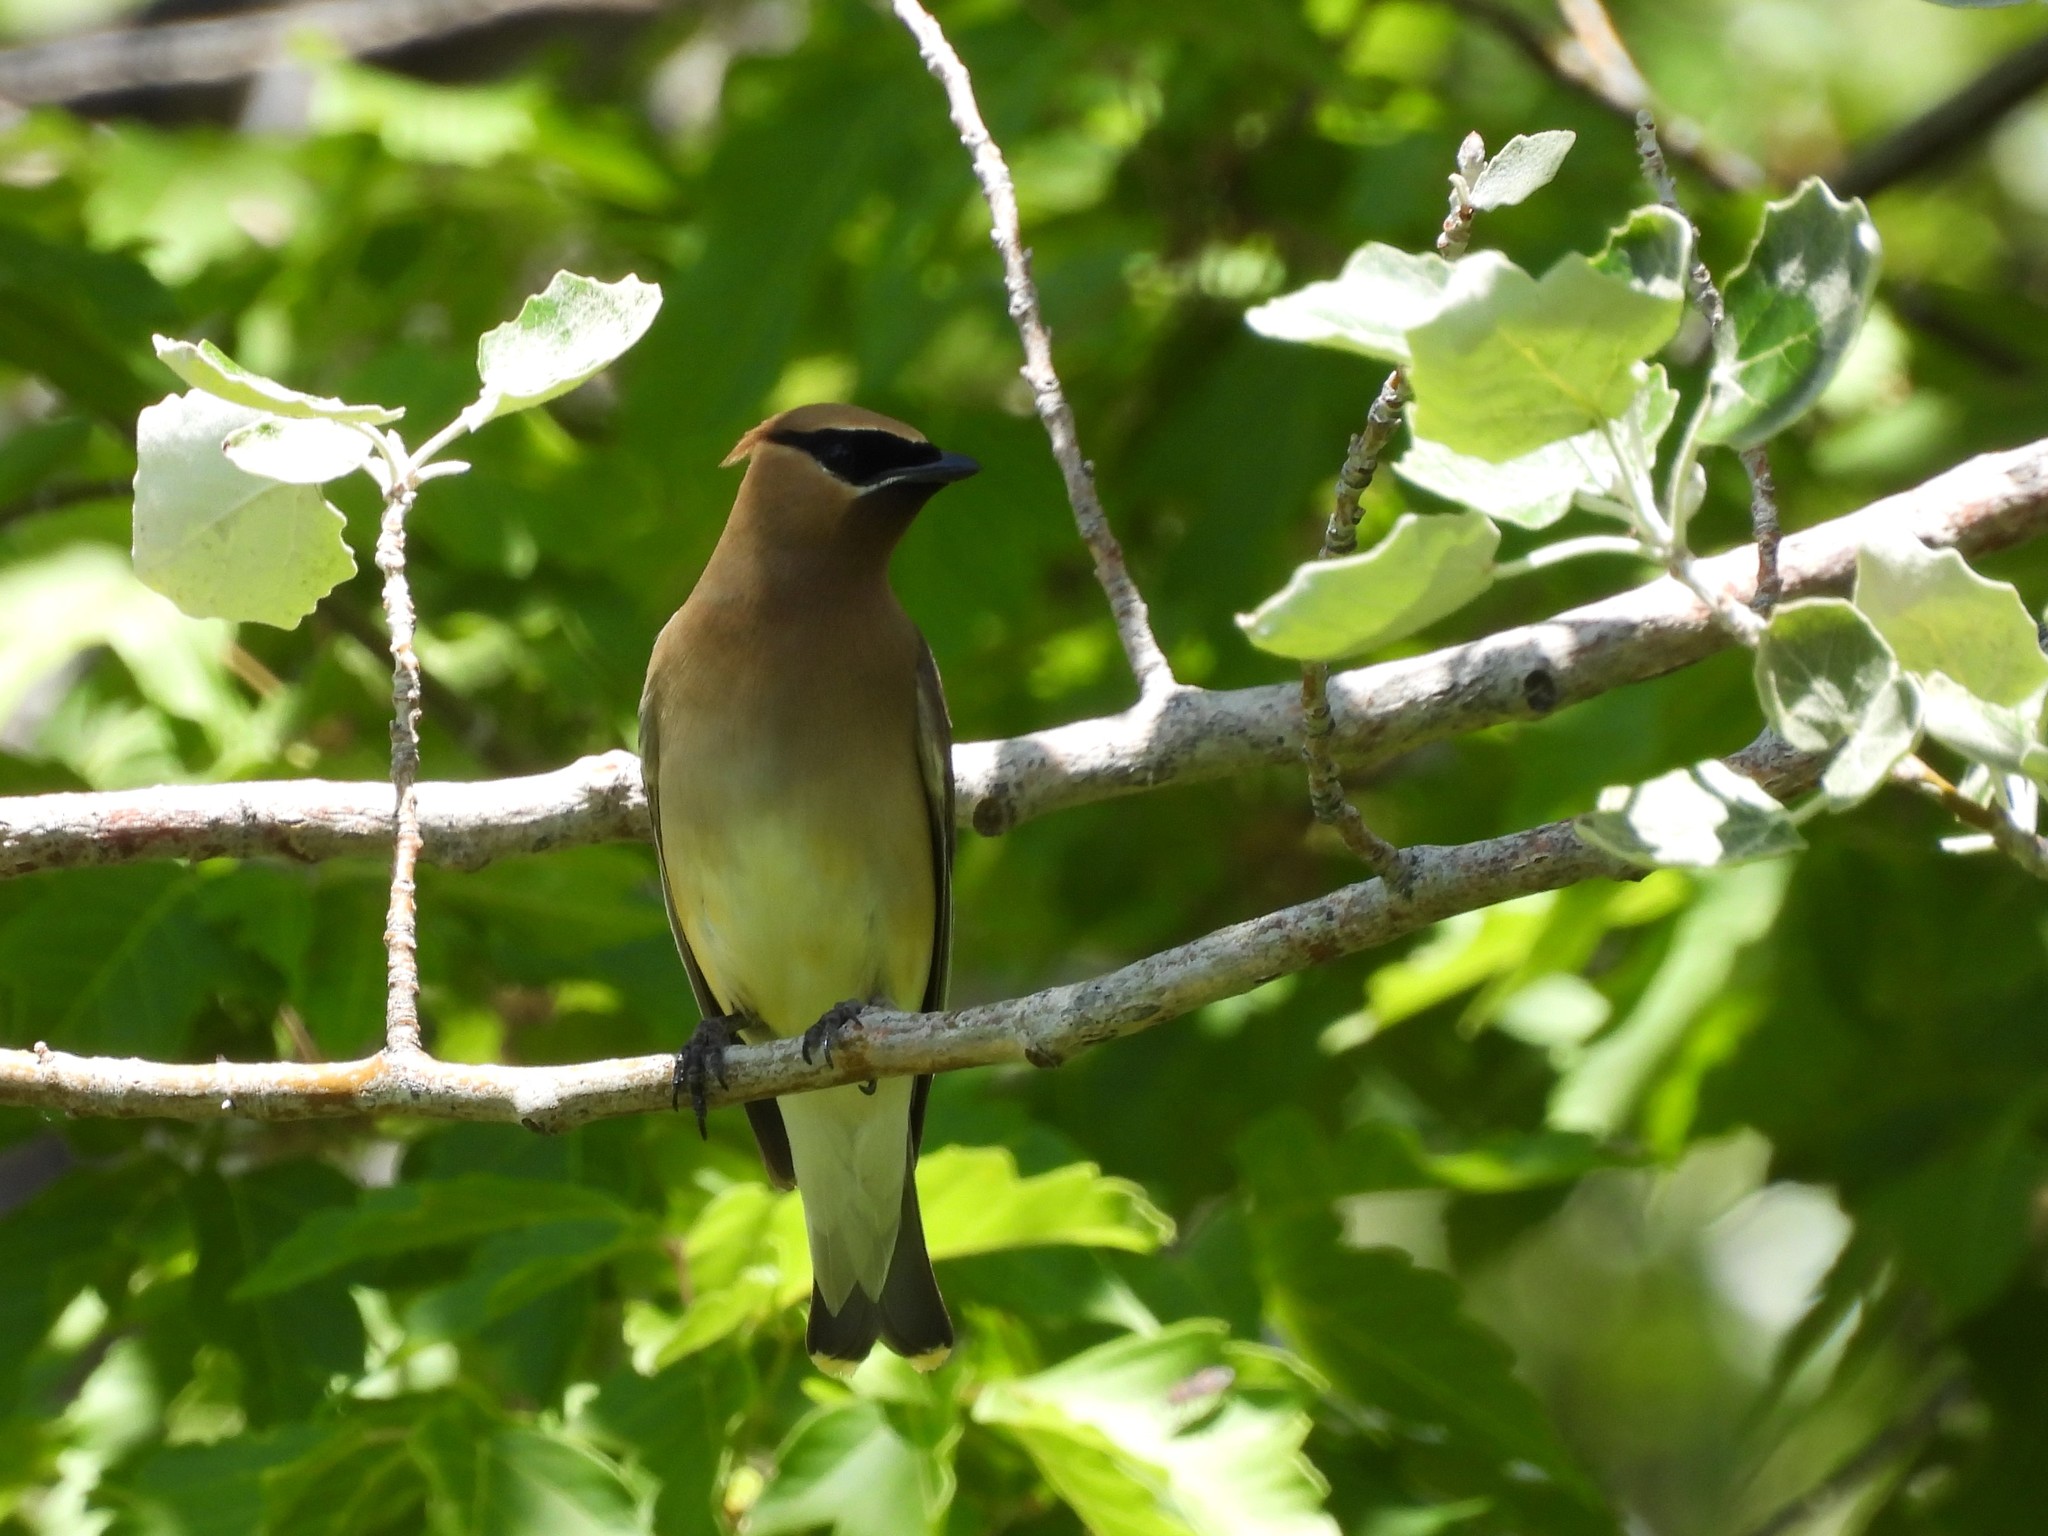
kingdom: Animalia
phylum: Chordata
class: Aves
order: Passeriformes
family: Bombycillidae
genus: Bombycilla
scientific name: Bombycilla cedrorum
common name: Cedar waxwing
